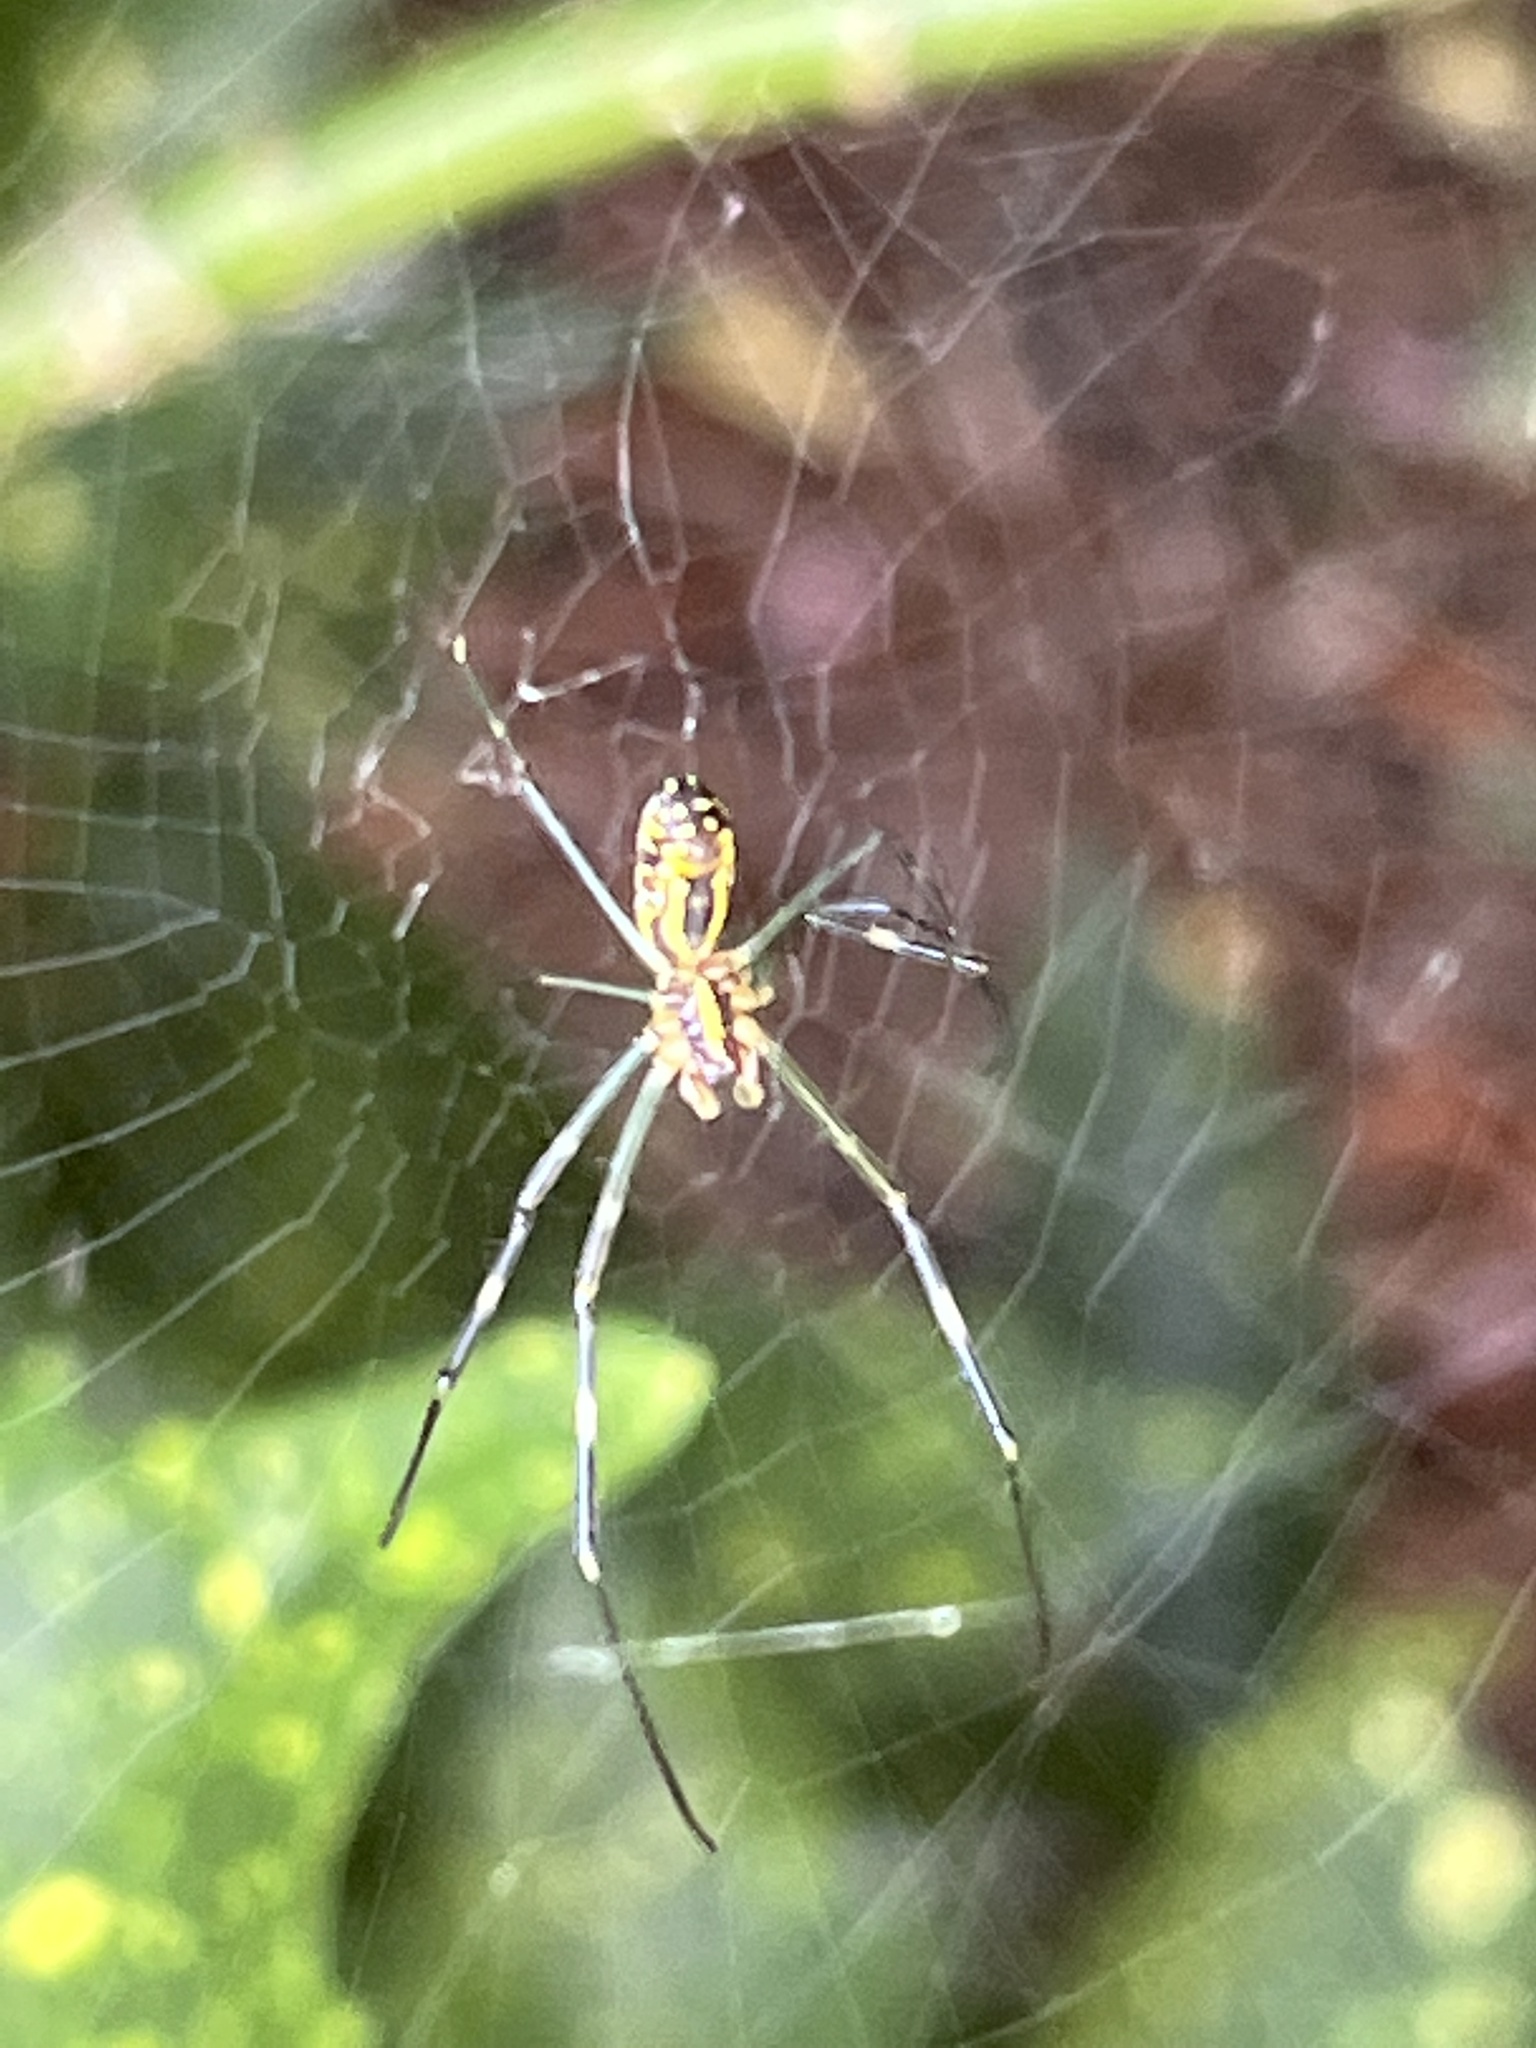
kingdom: Animalia
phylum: Arthropoda
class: Arachnida
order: Araneae
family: Araneidae
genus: Trichonephila
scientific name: Trichonephila clavata
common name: Jorō spider
